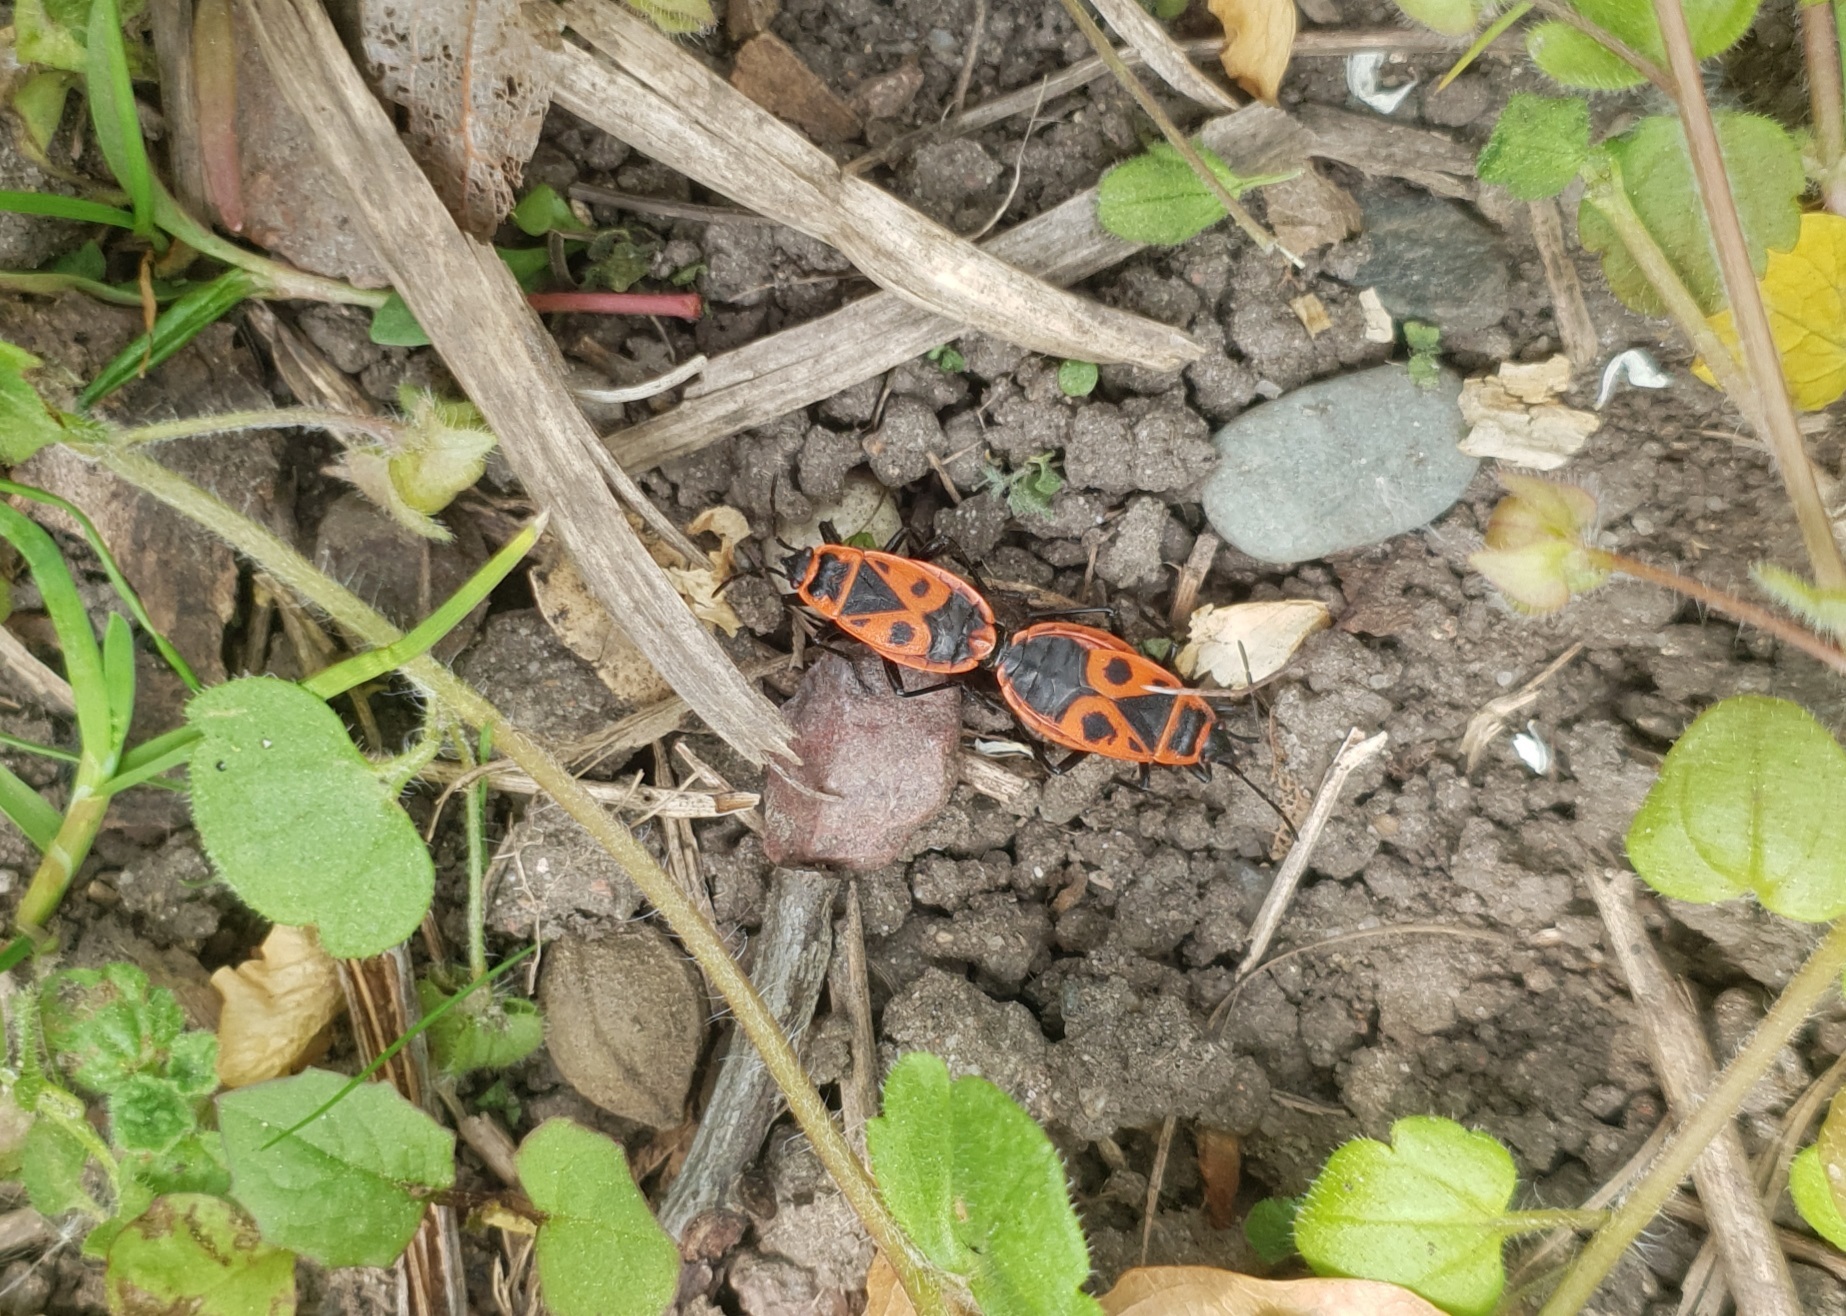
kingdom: Animalia
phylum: Arthropoda
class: Insecta
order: Hemiptera
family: Pyrrhocoridae
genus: Pyrrhocoris
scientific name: Pyrrhocoris apterus
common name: Firebug
